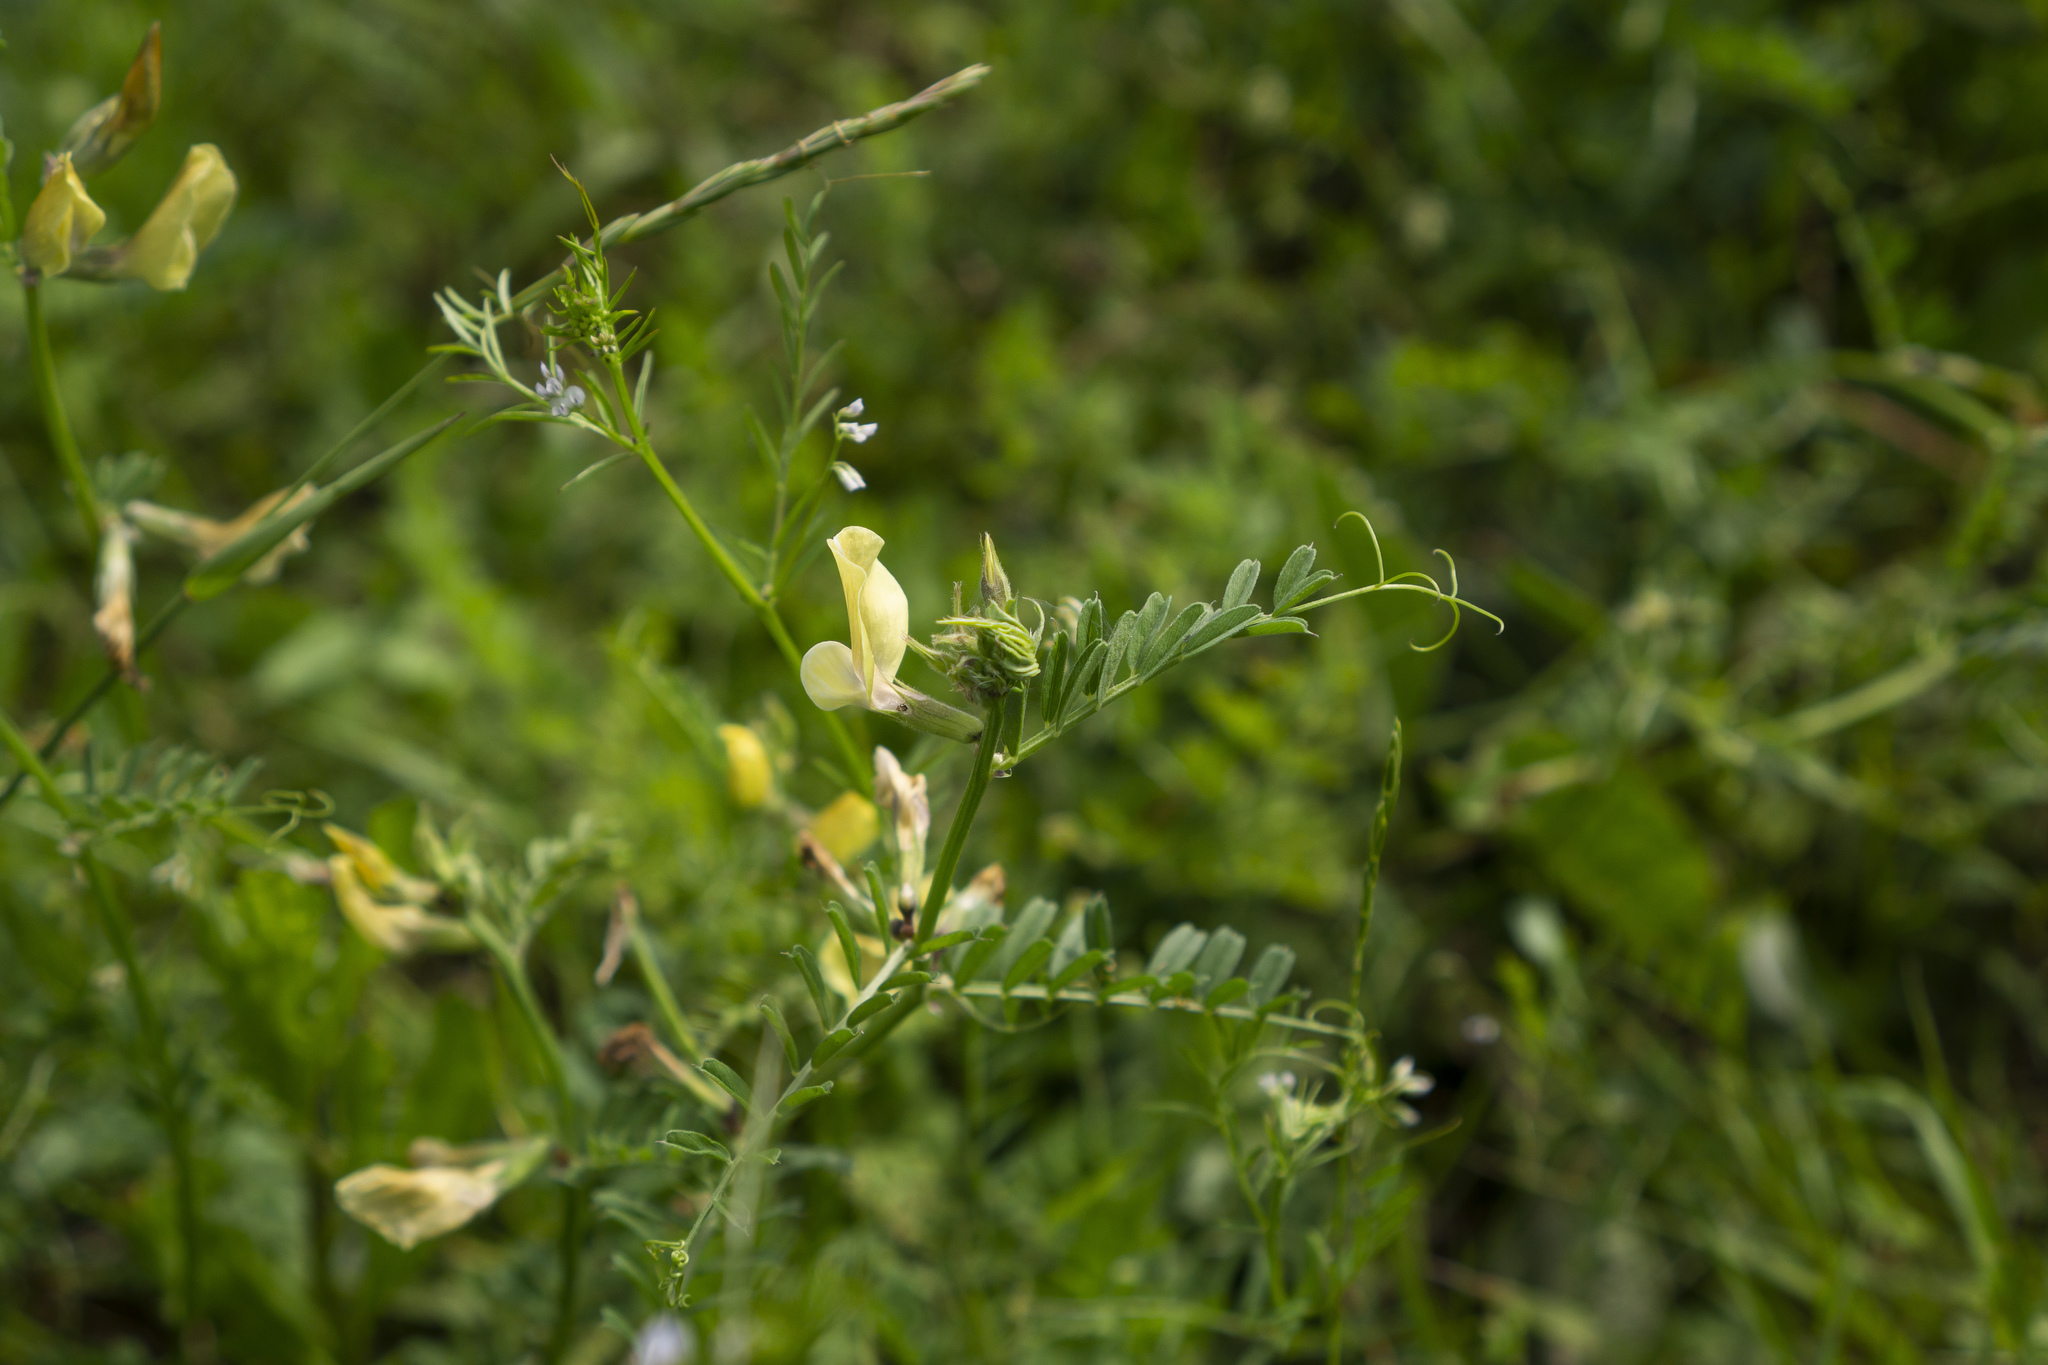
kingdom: Plantae
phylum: Tracheophyta
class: Magnoliopsida
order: Fabales
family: Fabaceae
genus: Vicia
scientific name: Vicia grandiflora
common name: Large yellow vetch
